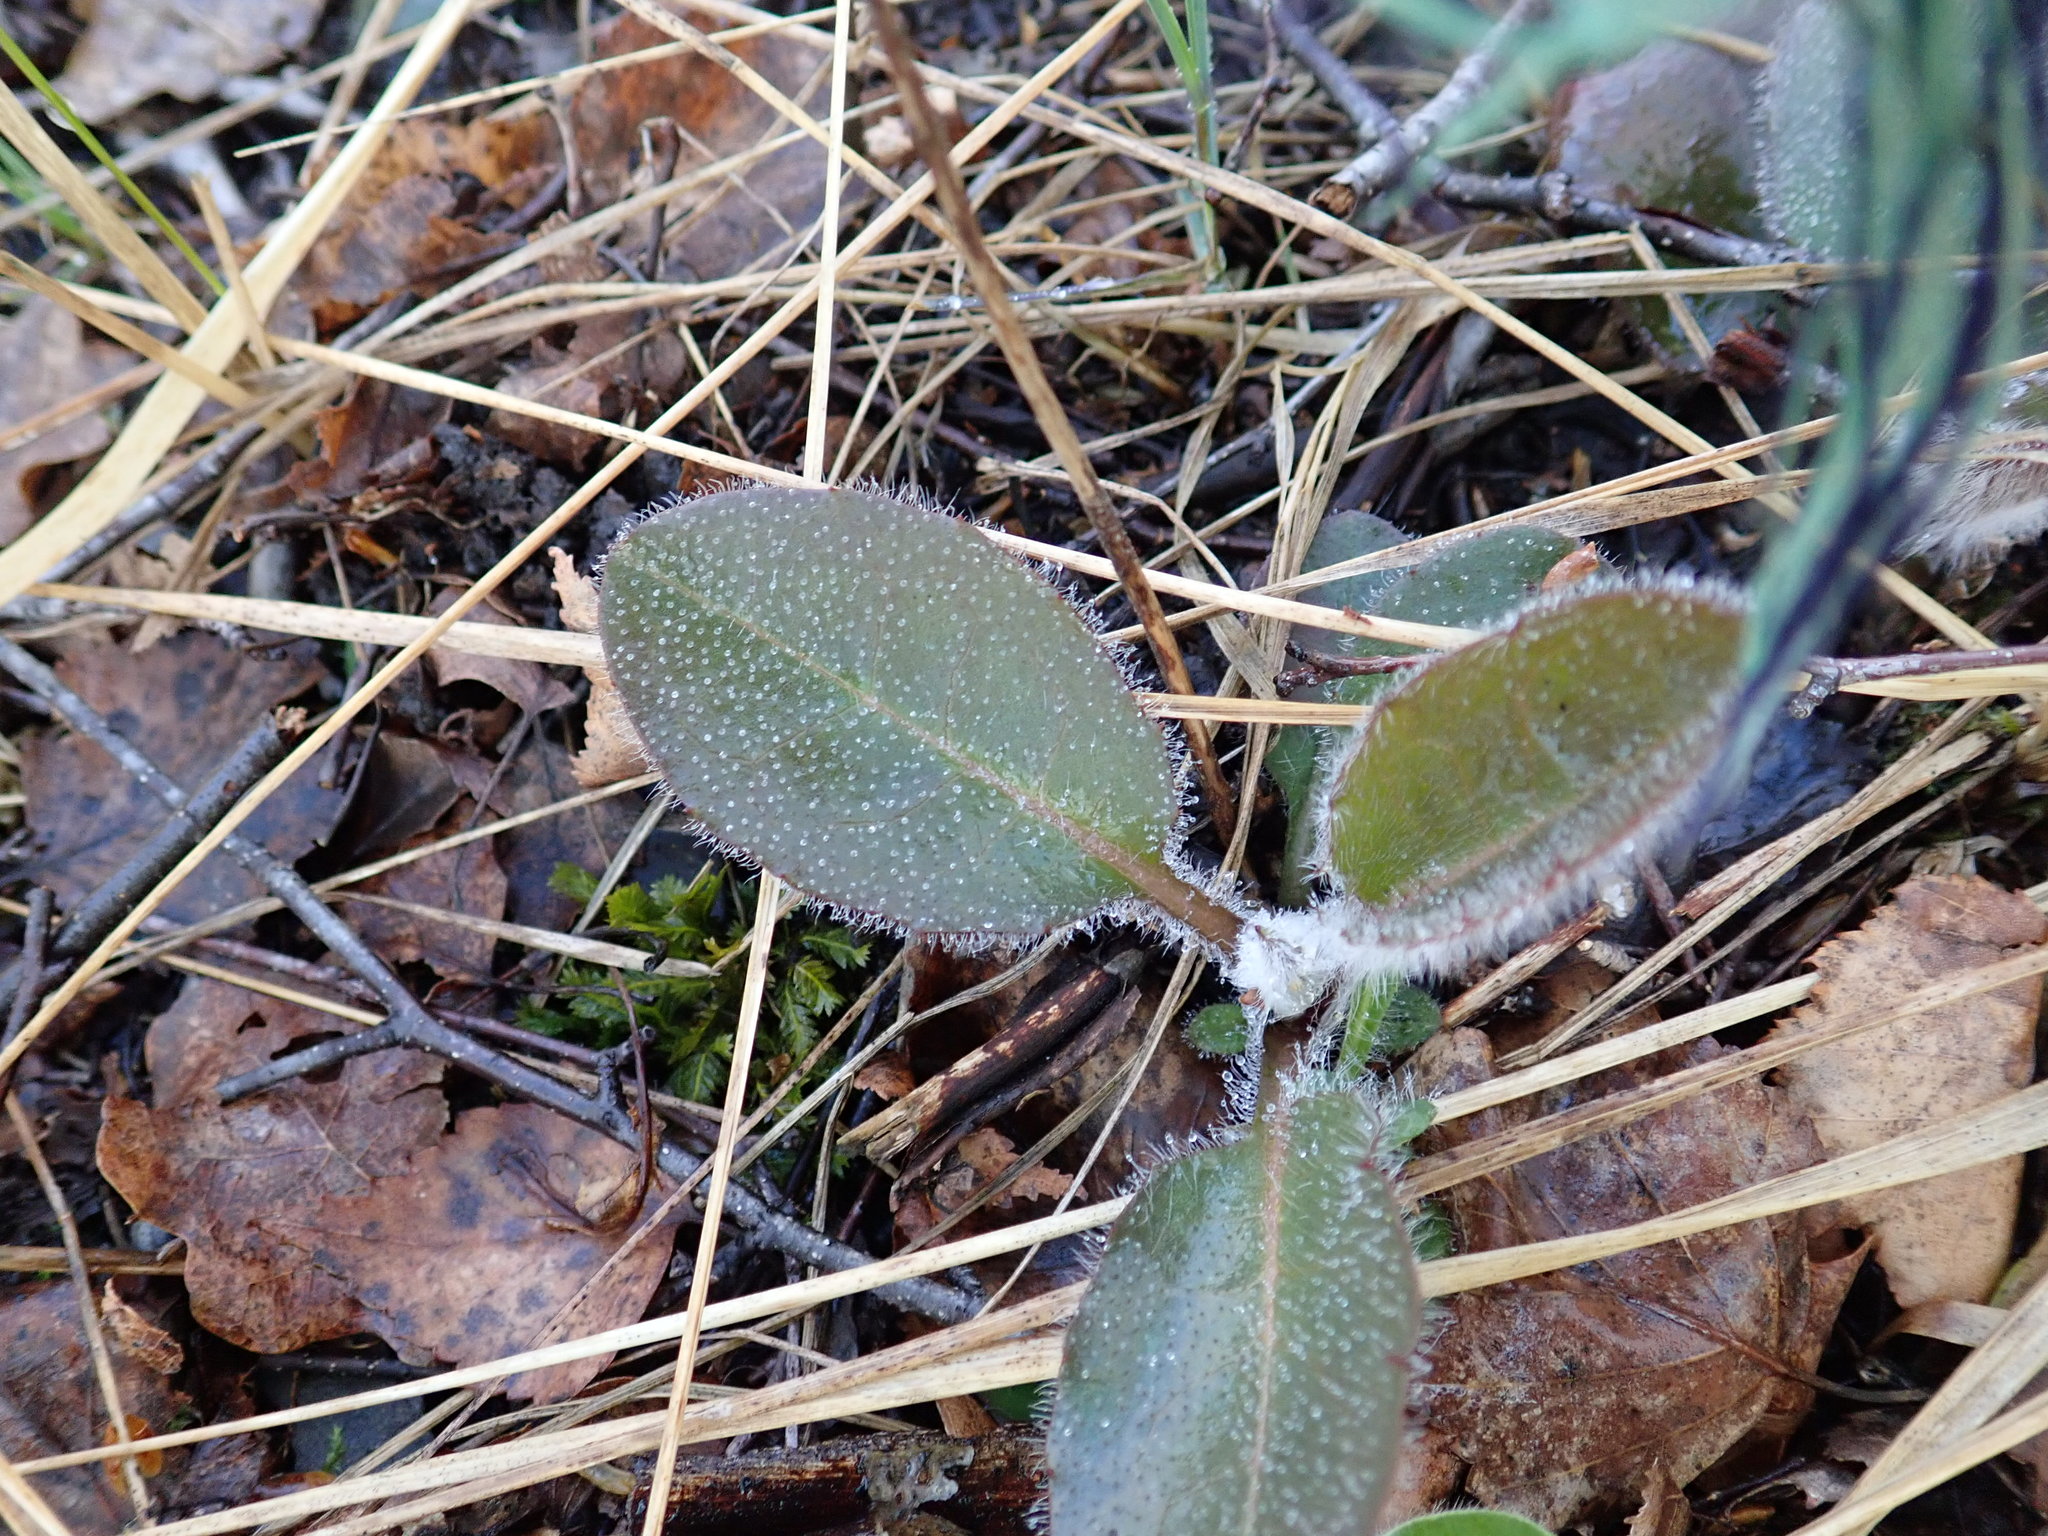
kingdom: Plantae
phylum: Tracheophyta
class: Magnoliopsida
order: Asterales
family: Asteraceae
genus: Hieracium
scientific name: Hieracium
